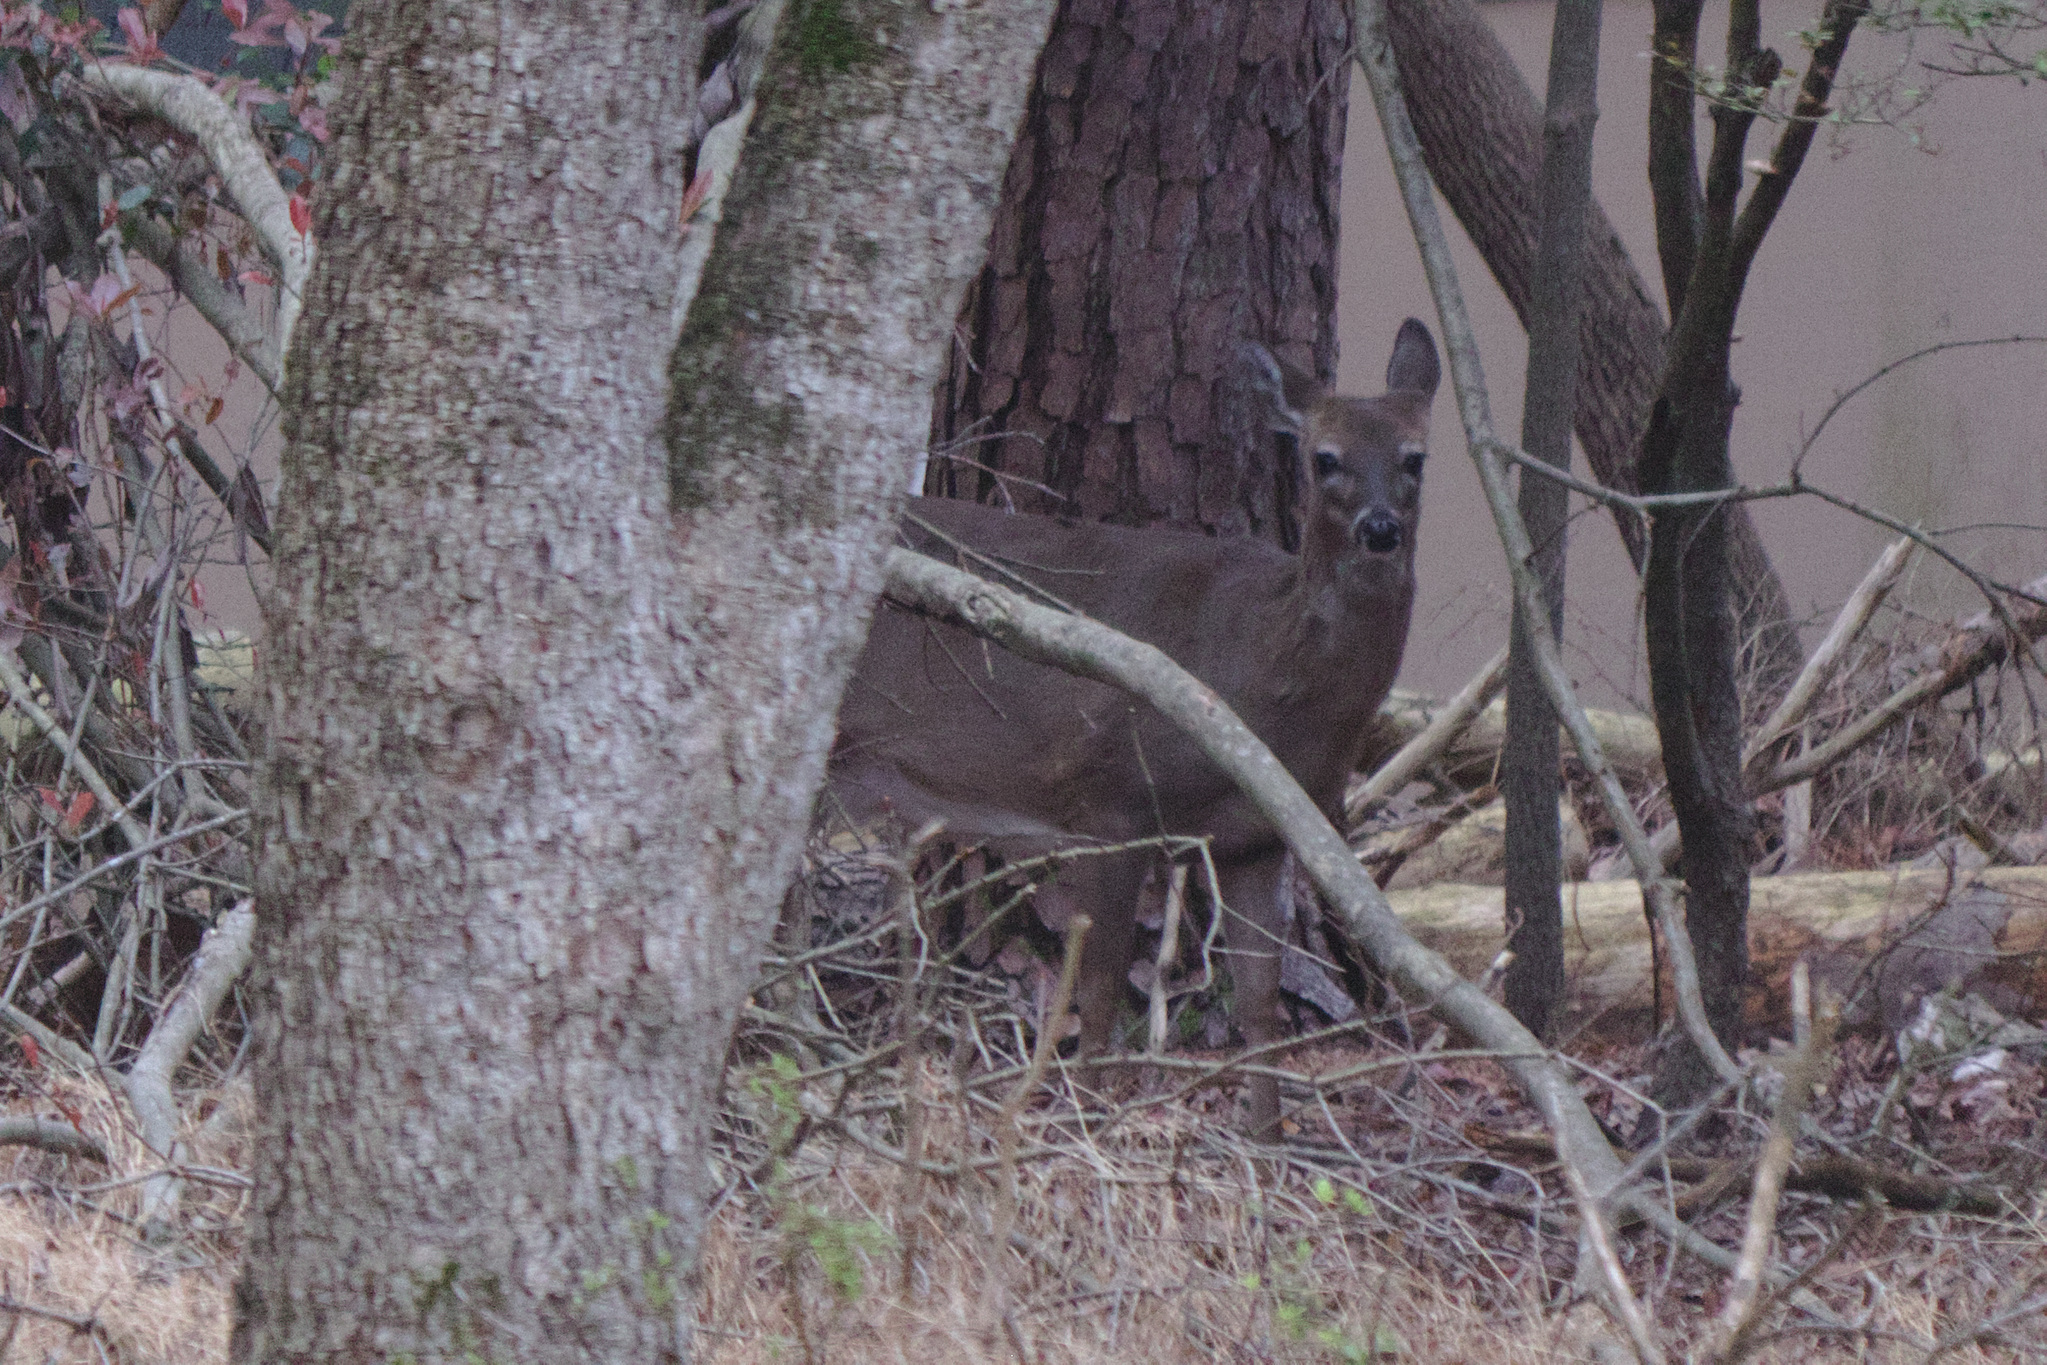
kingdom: Animalia
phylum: Chordata
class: Mammalia
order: Artiodactyla
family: Cervidae
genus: Odocoileus
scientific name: Odocoileus virginianus
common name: White-tailed deer
